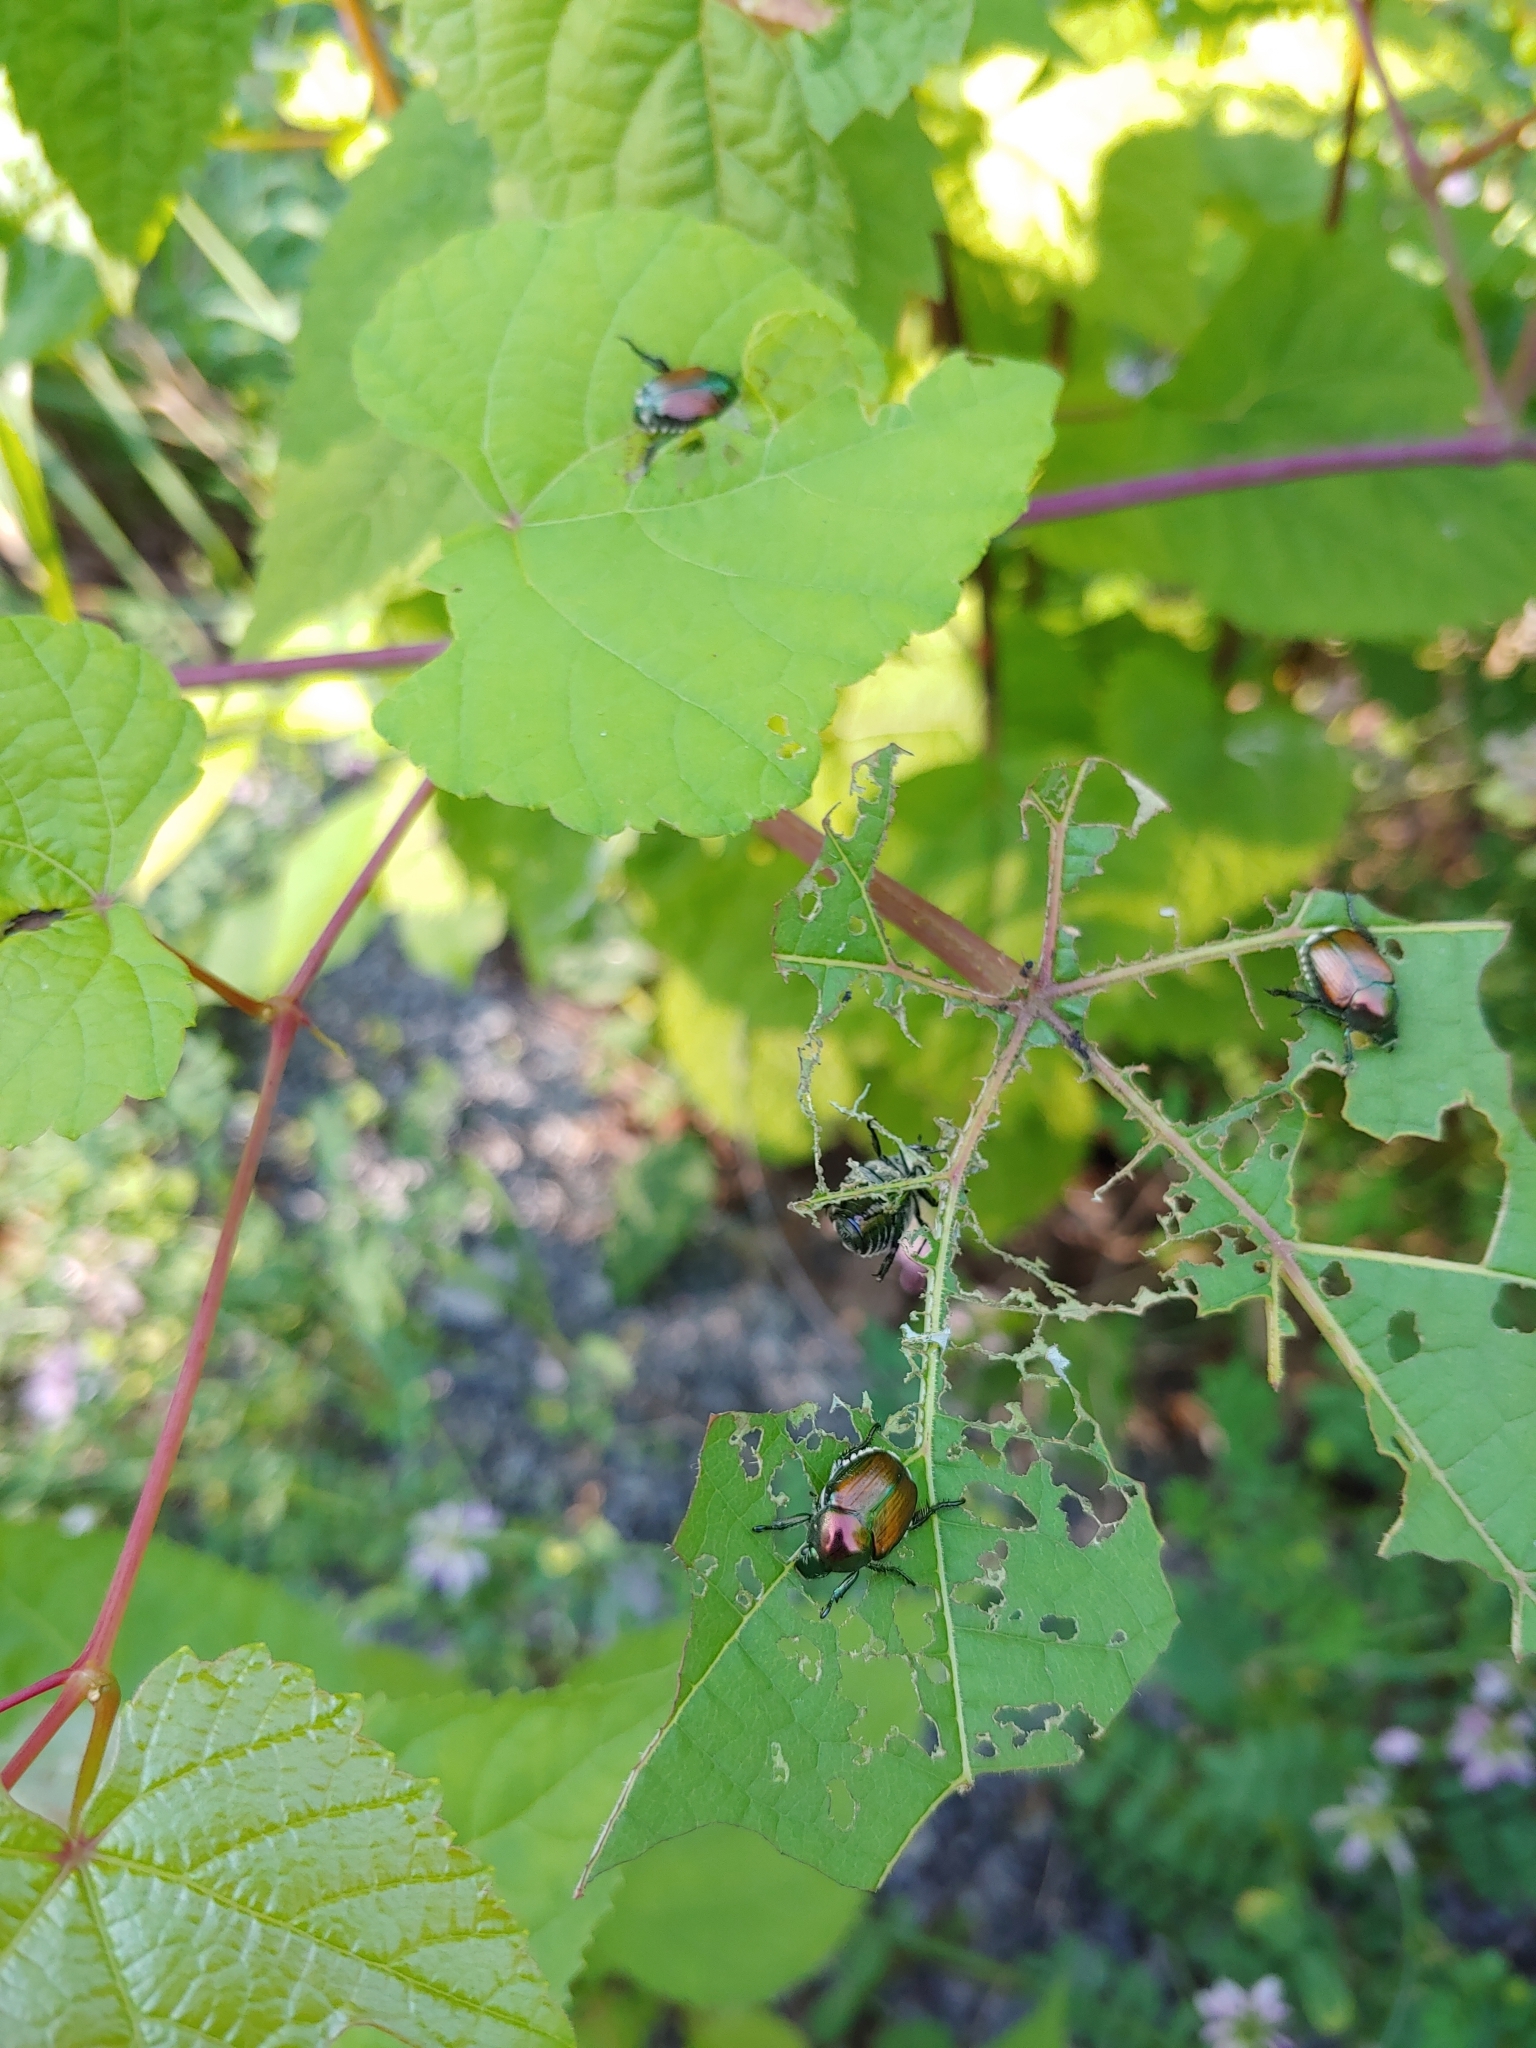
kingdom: Animalia
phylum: Arthropoda
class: Insecta
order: Coleoptera
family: Scarabaeidae
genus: Popillia
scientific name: Popillia japonica
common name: Japanese beetle
